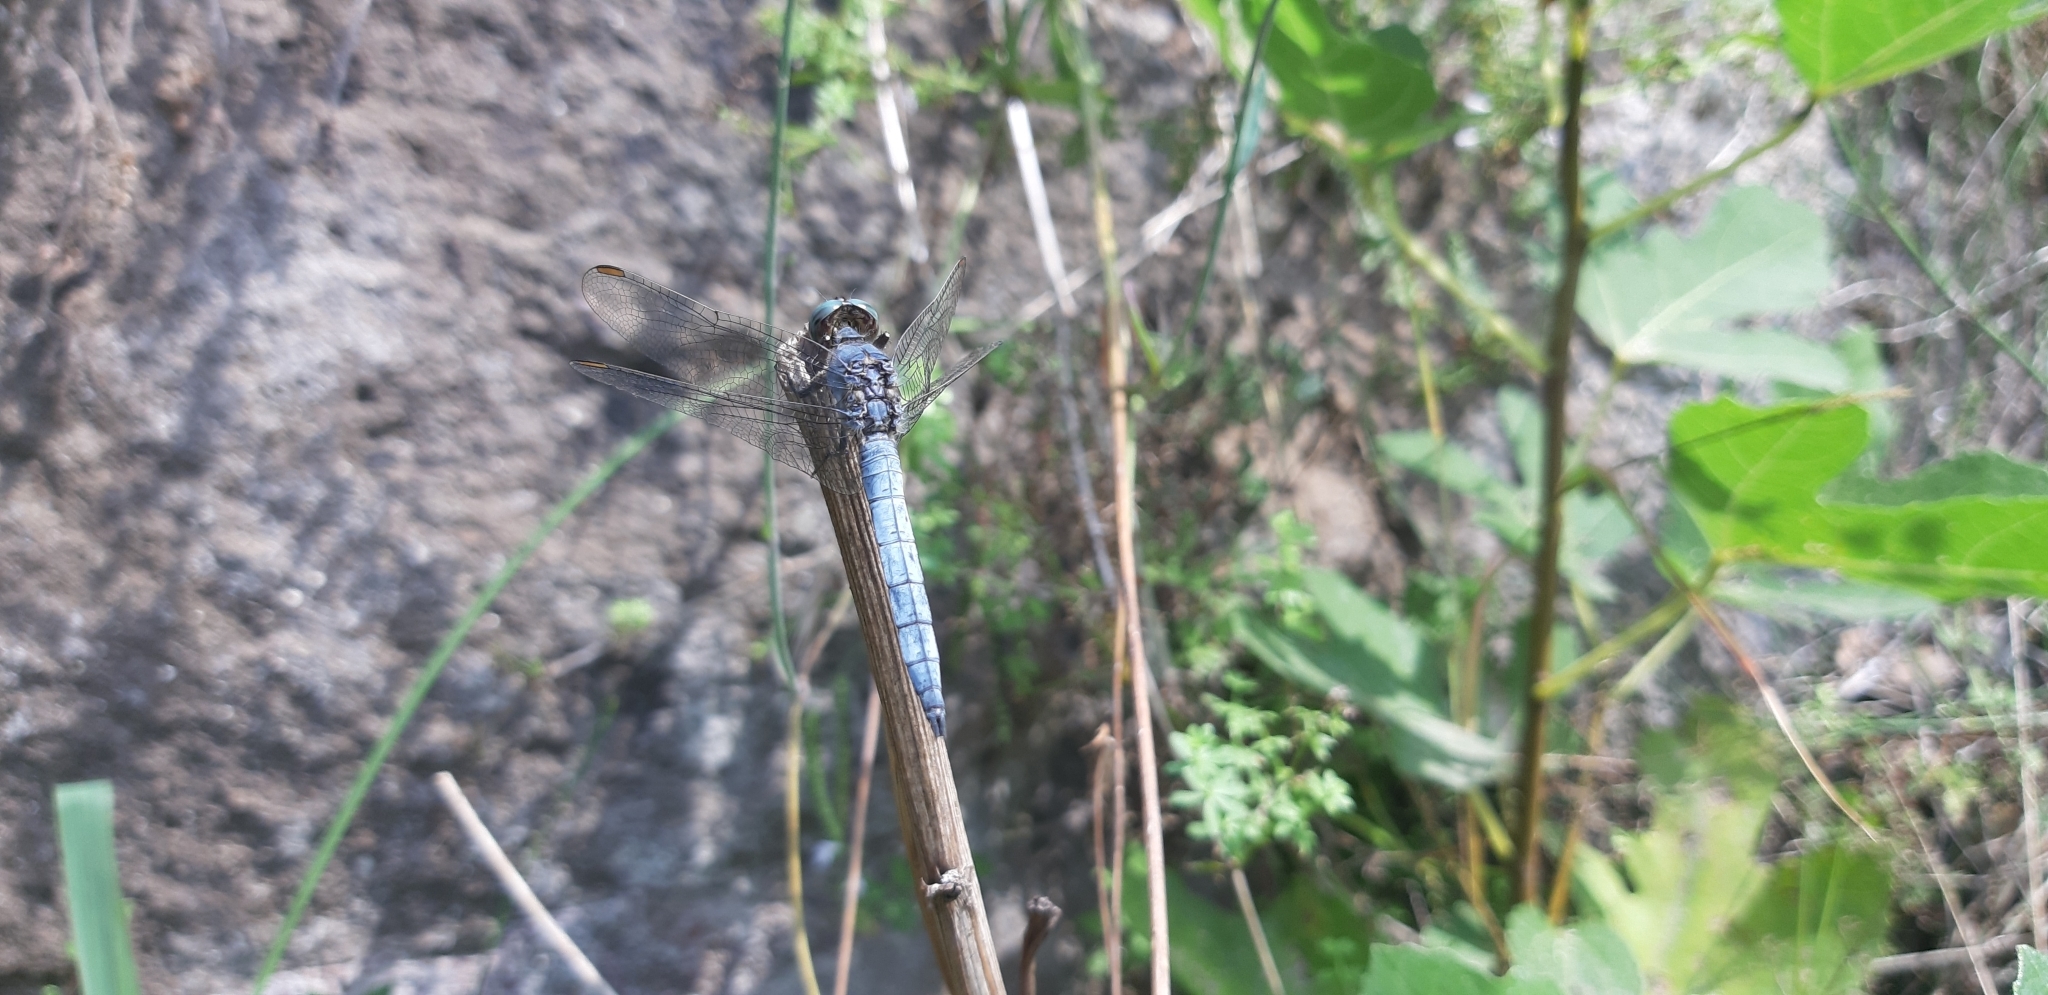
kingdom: Animalia
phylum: Arthropoda
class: Insecta
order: Odonata
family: Libellulidae
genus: Orthetrum
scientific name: Orthetrum coerulescens
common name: Keeled skimmer
